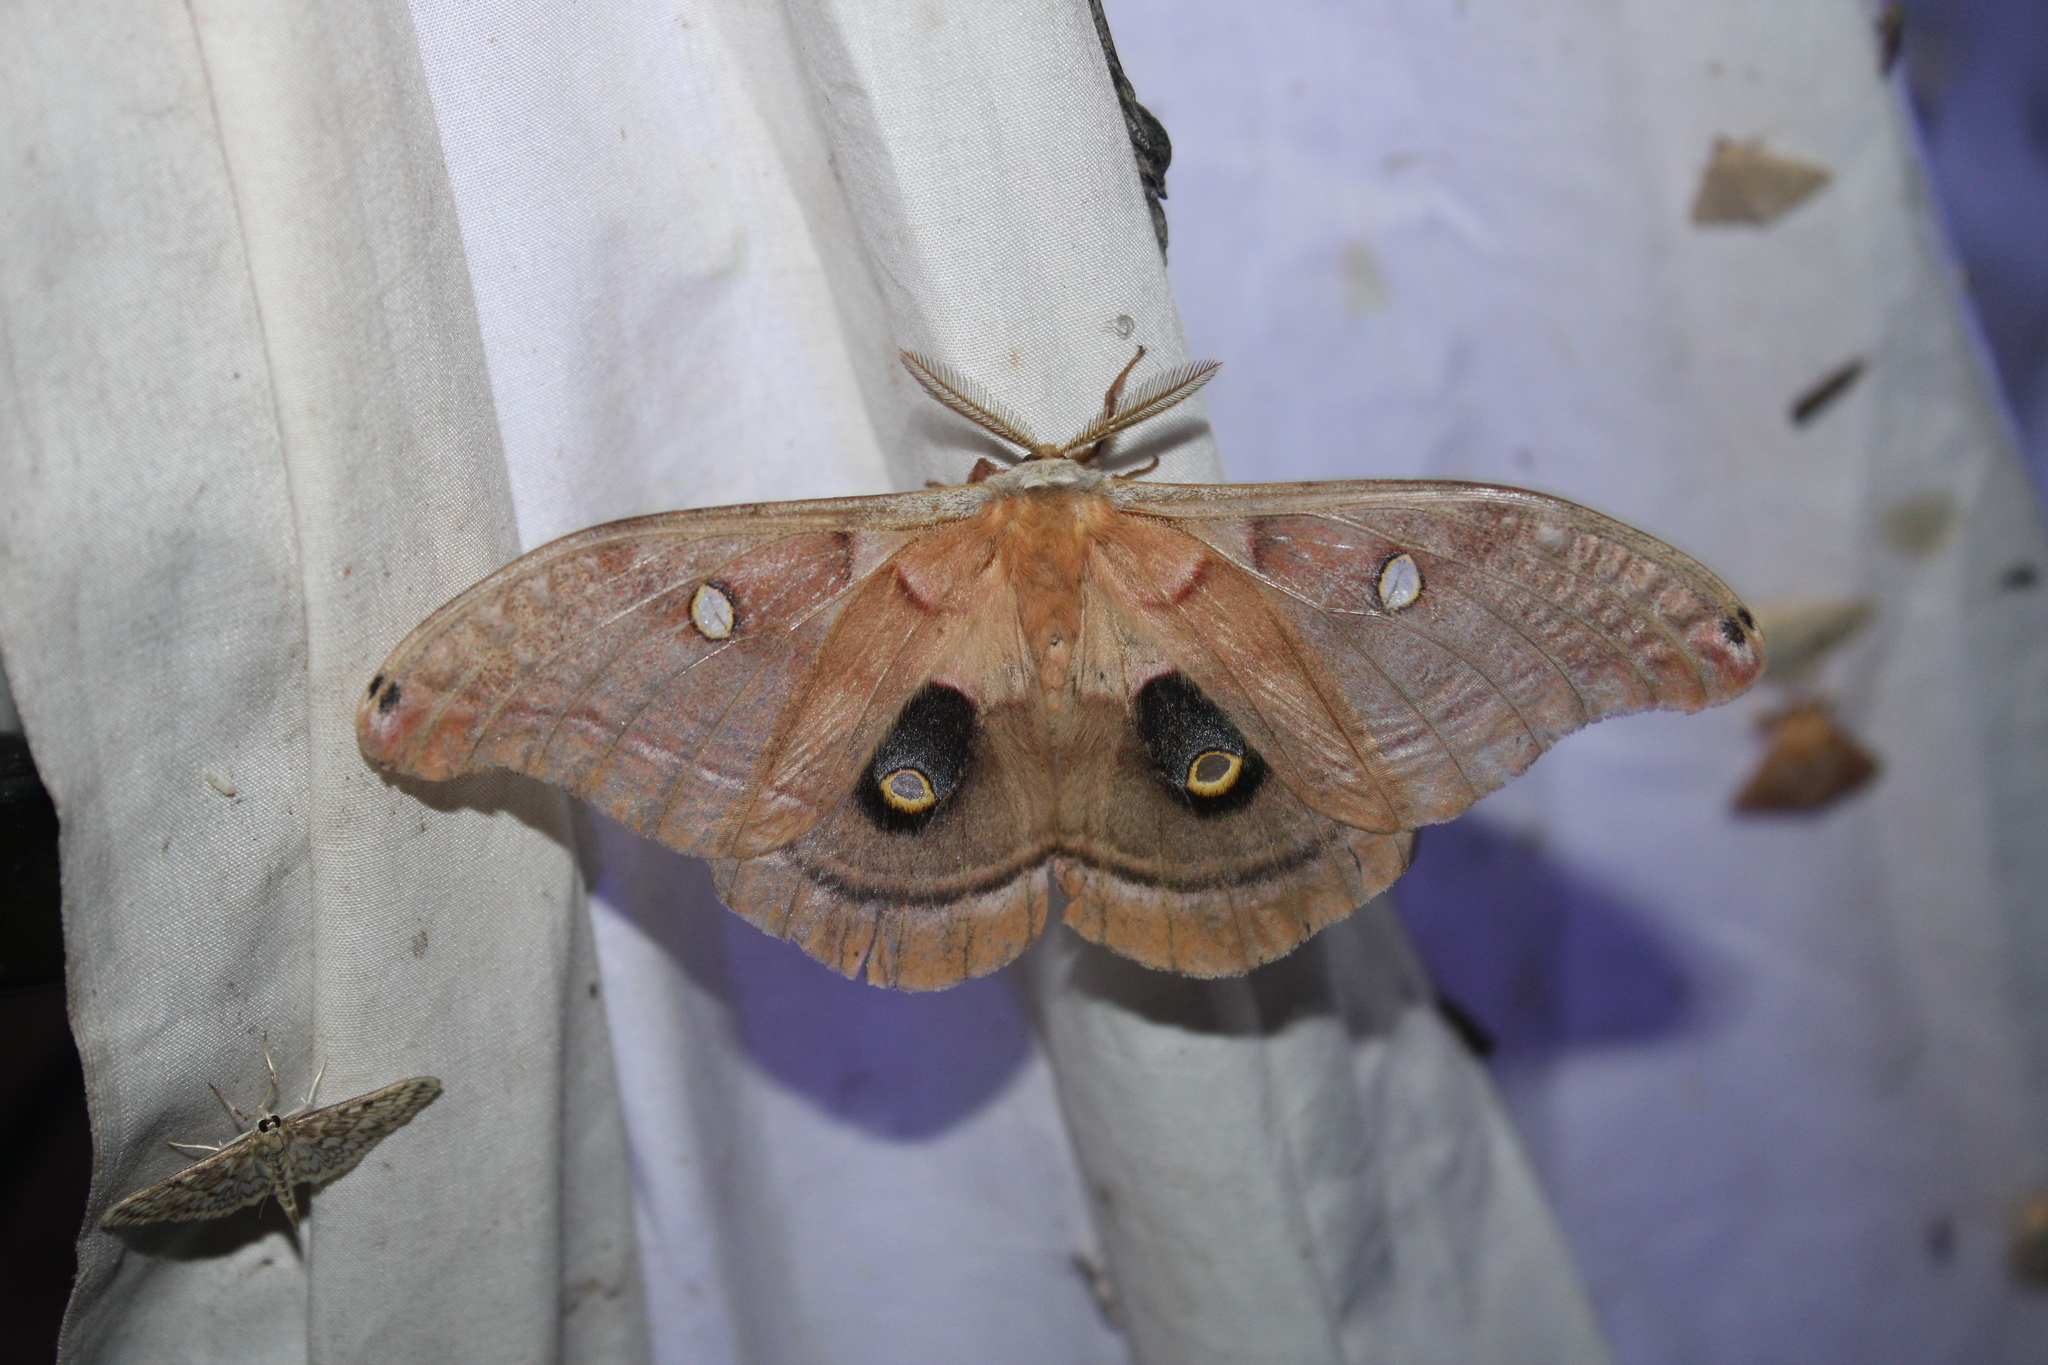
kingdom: Animalia
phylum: Arthropoda
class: Insecta
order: Lepidoptera
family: Saturniidae
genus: Antheraea
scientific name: Antheraea polyphemus
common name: Polyphemus moth
